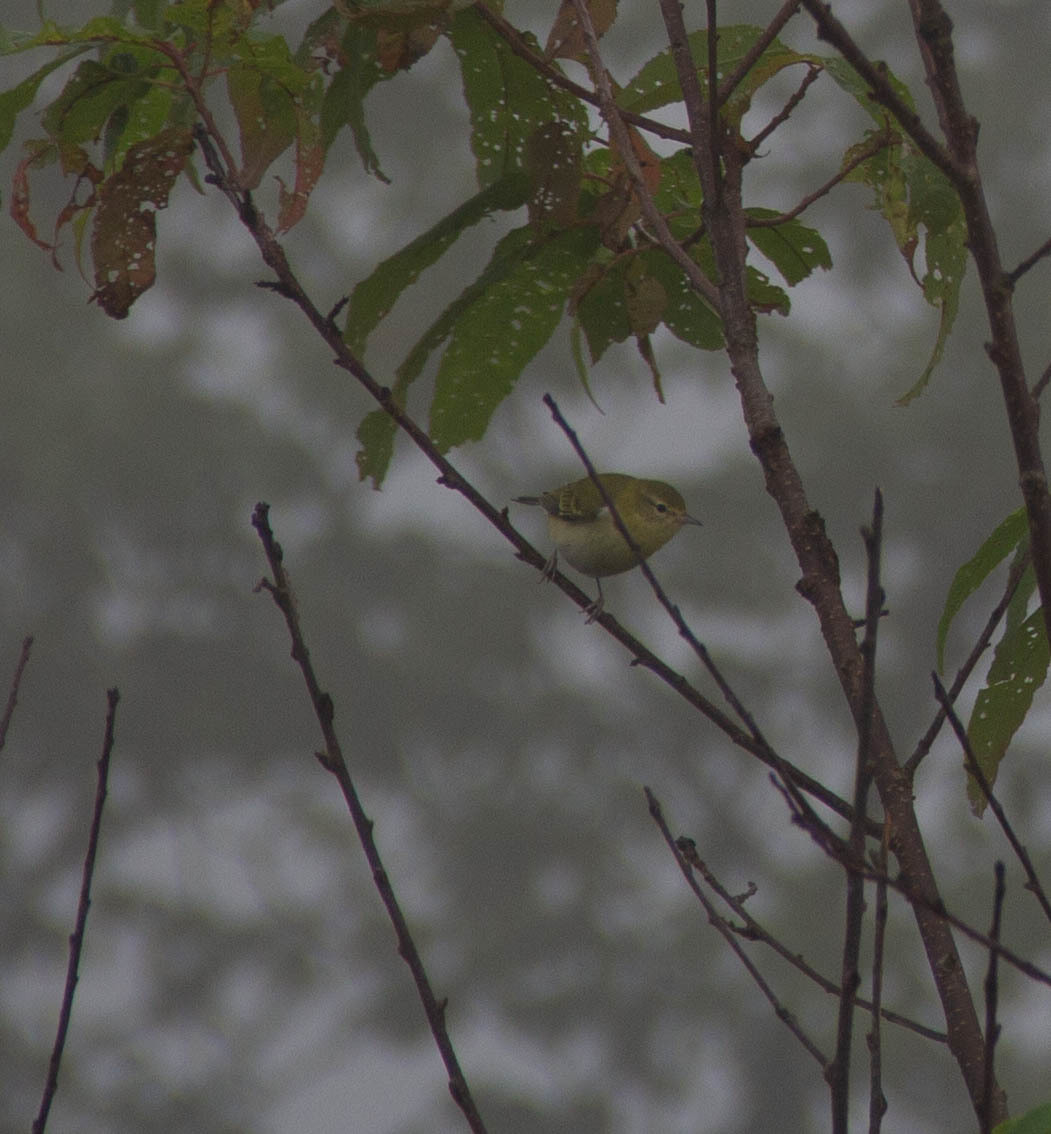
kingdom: Animalia
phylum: Chordata
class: Aves
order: Passeriformes
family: Parulidae
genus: Leiothlypis
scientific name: Leiothlypis peregrina
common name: Tennessee warbler
